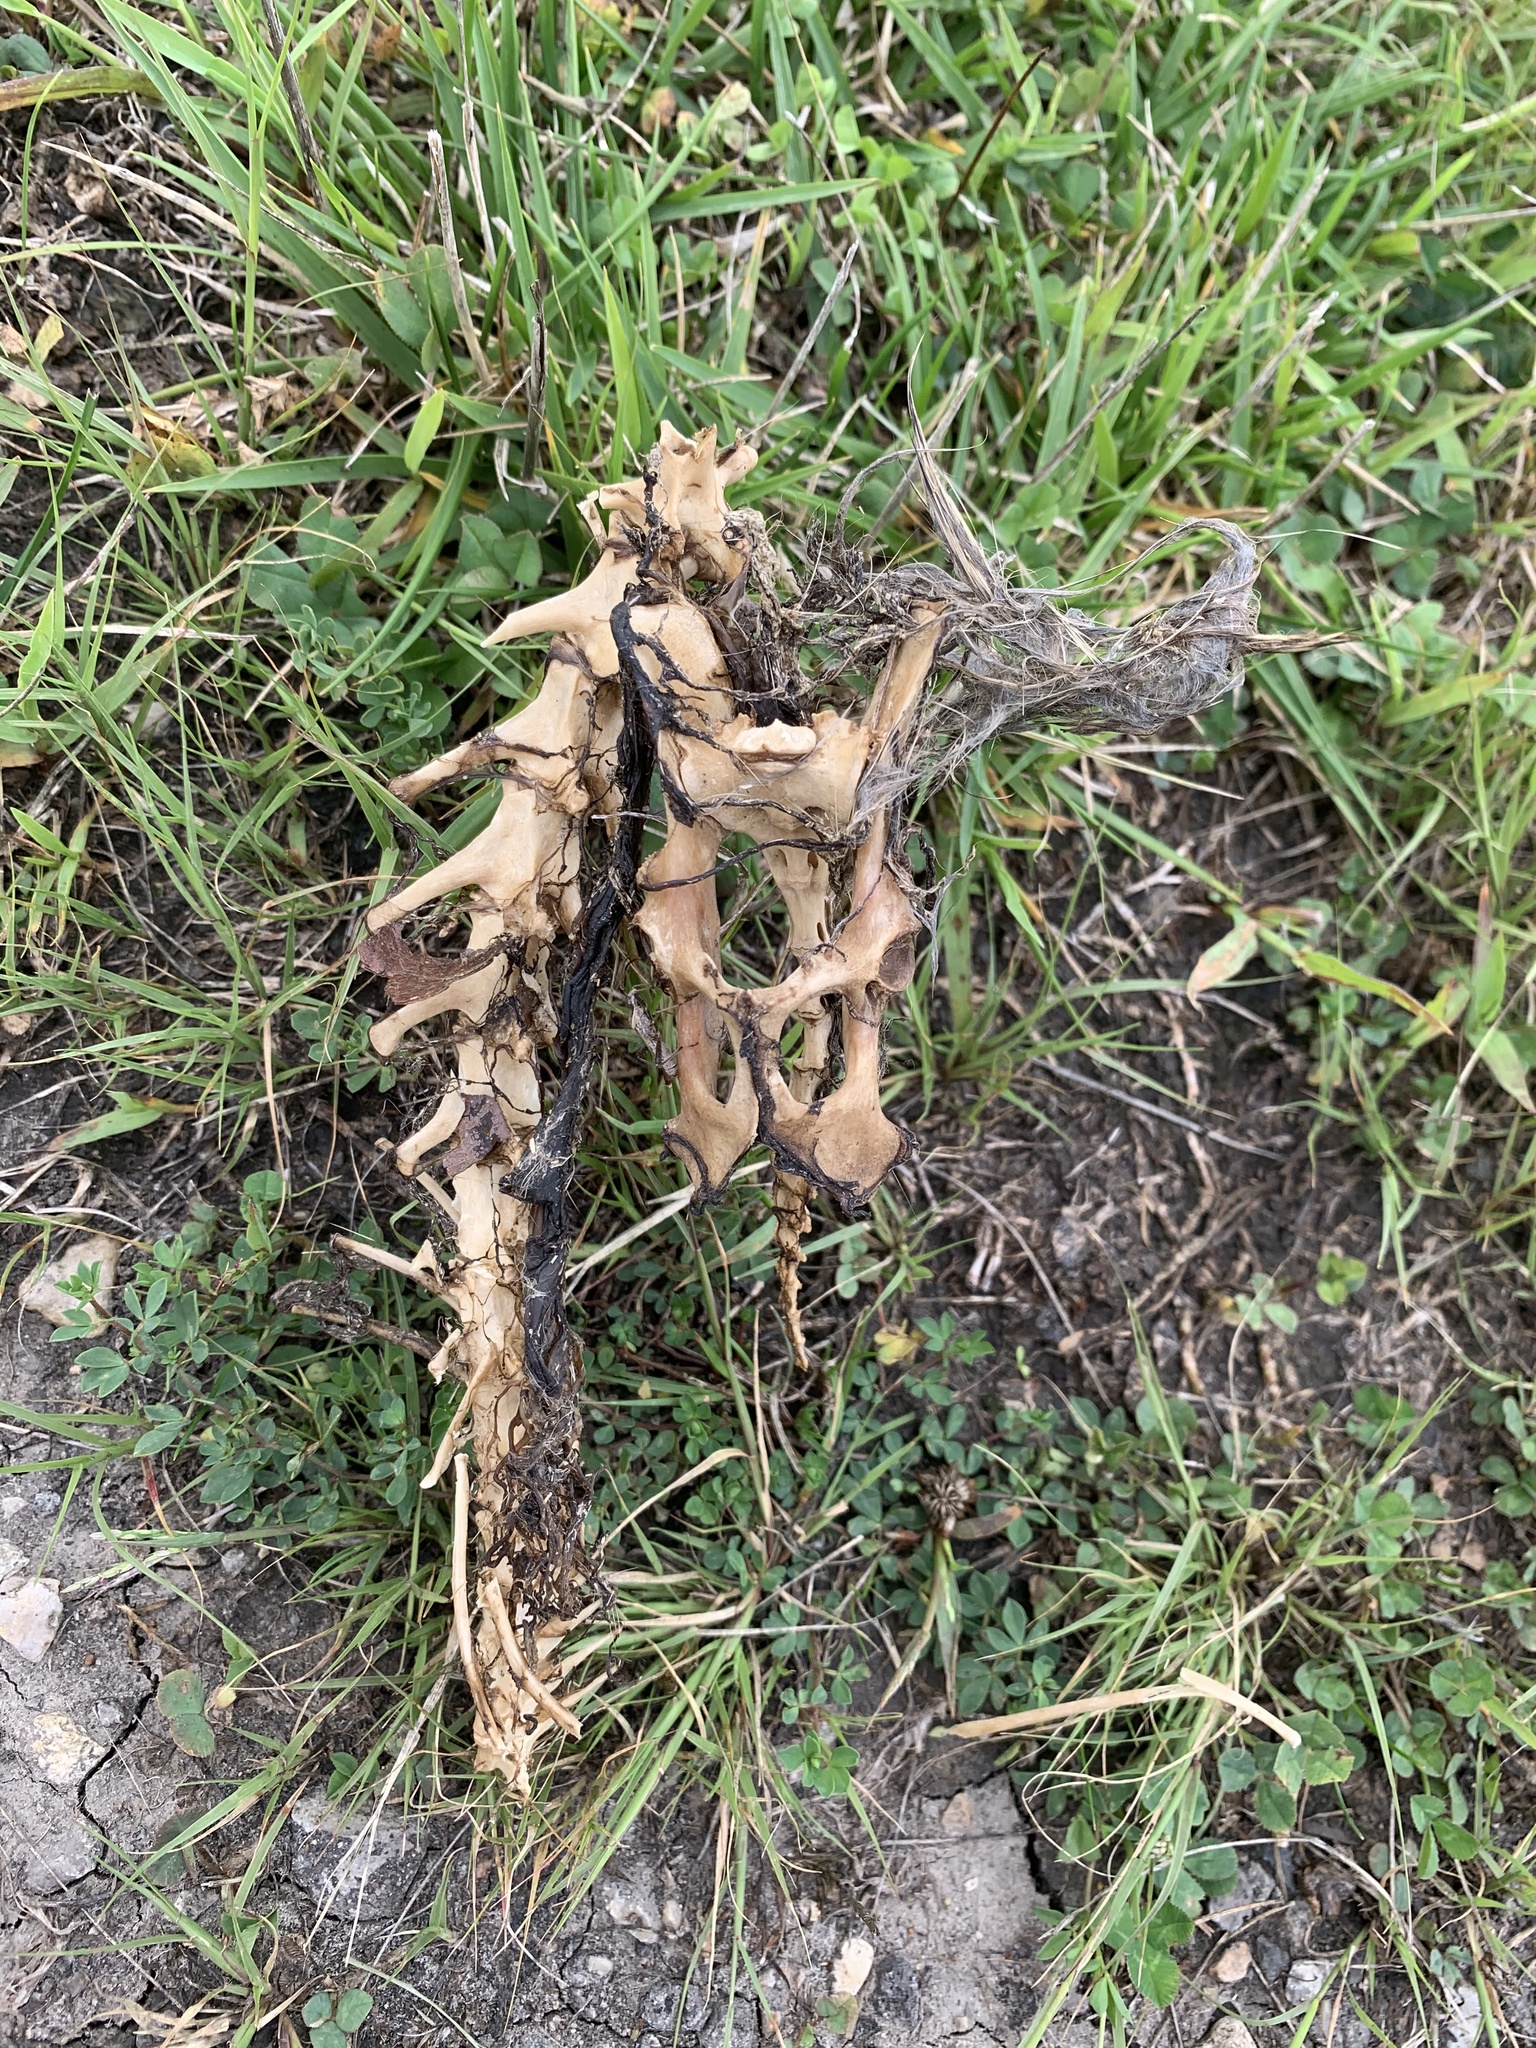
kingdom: Animalia
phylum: Chordata
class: Mammalia
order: Lagomorpha
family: Leporidae
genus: Sylvilagus
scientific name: Sylvilagus floridanus
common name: Eastern cottontail
